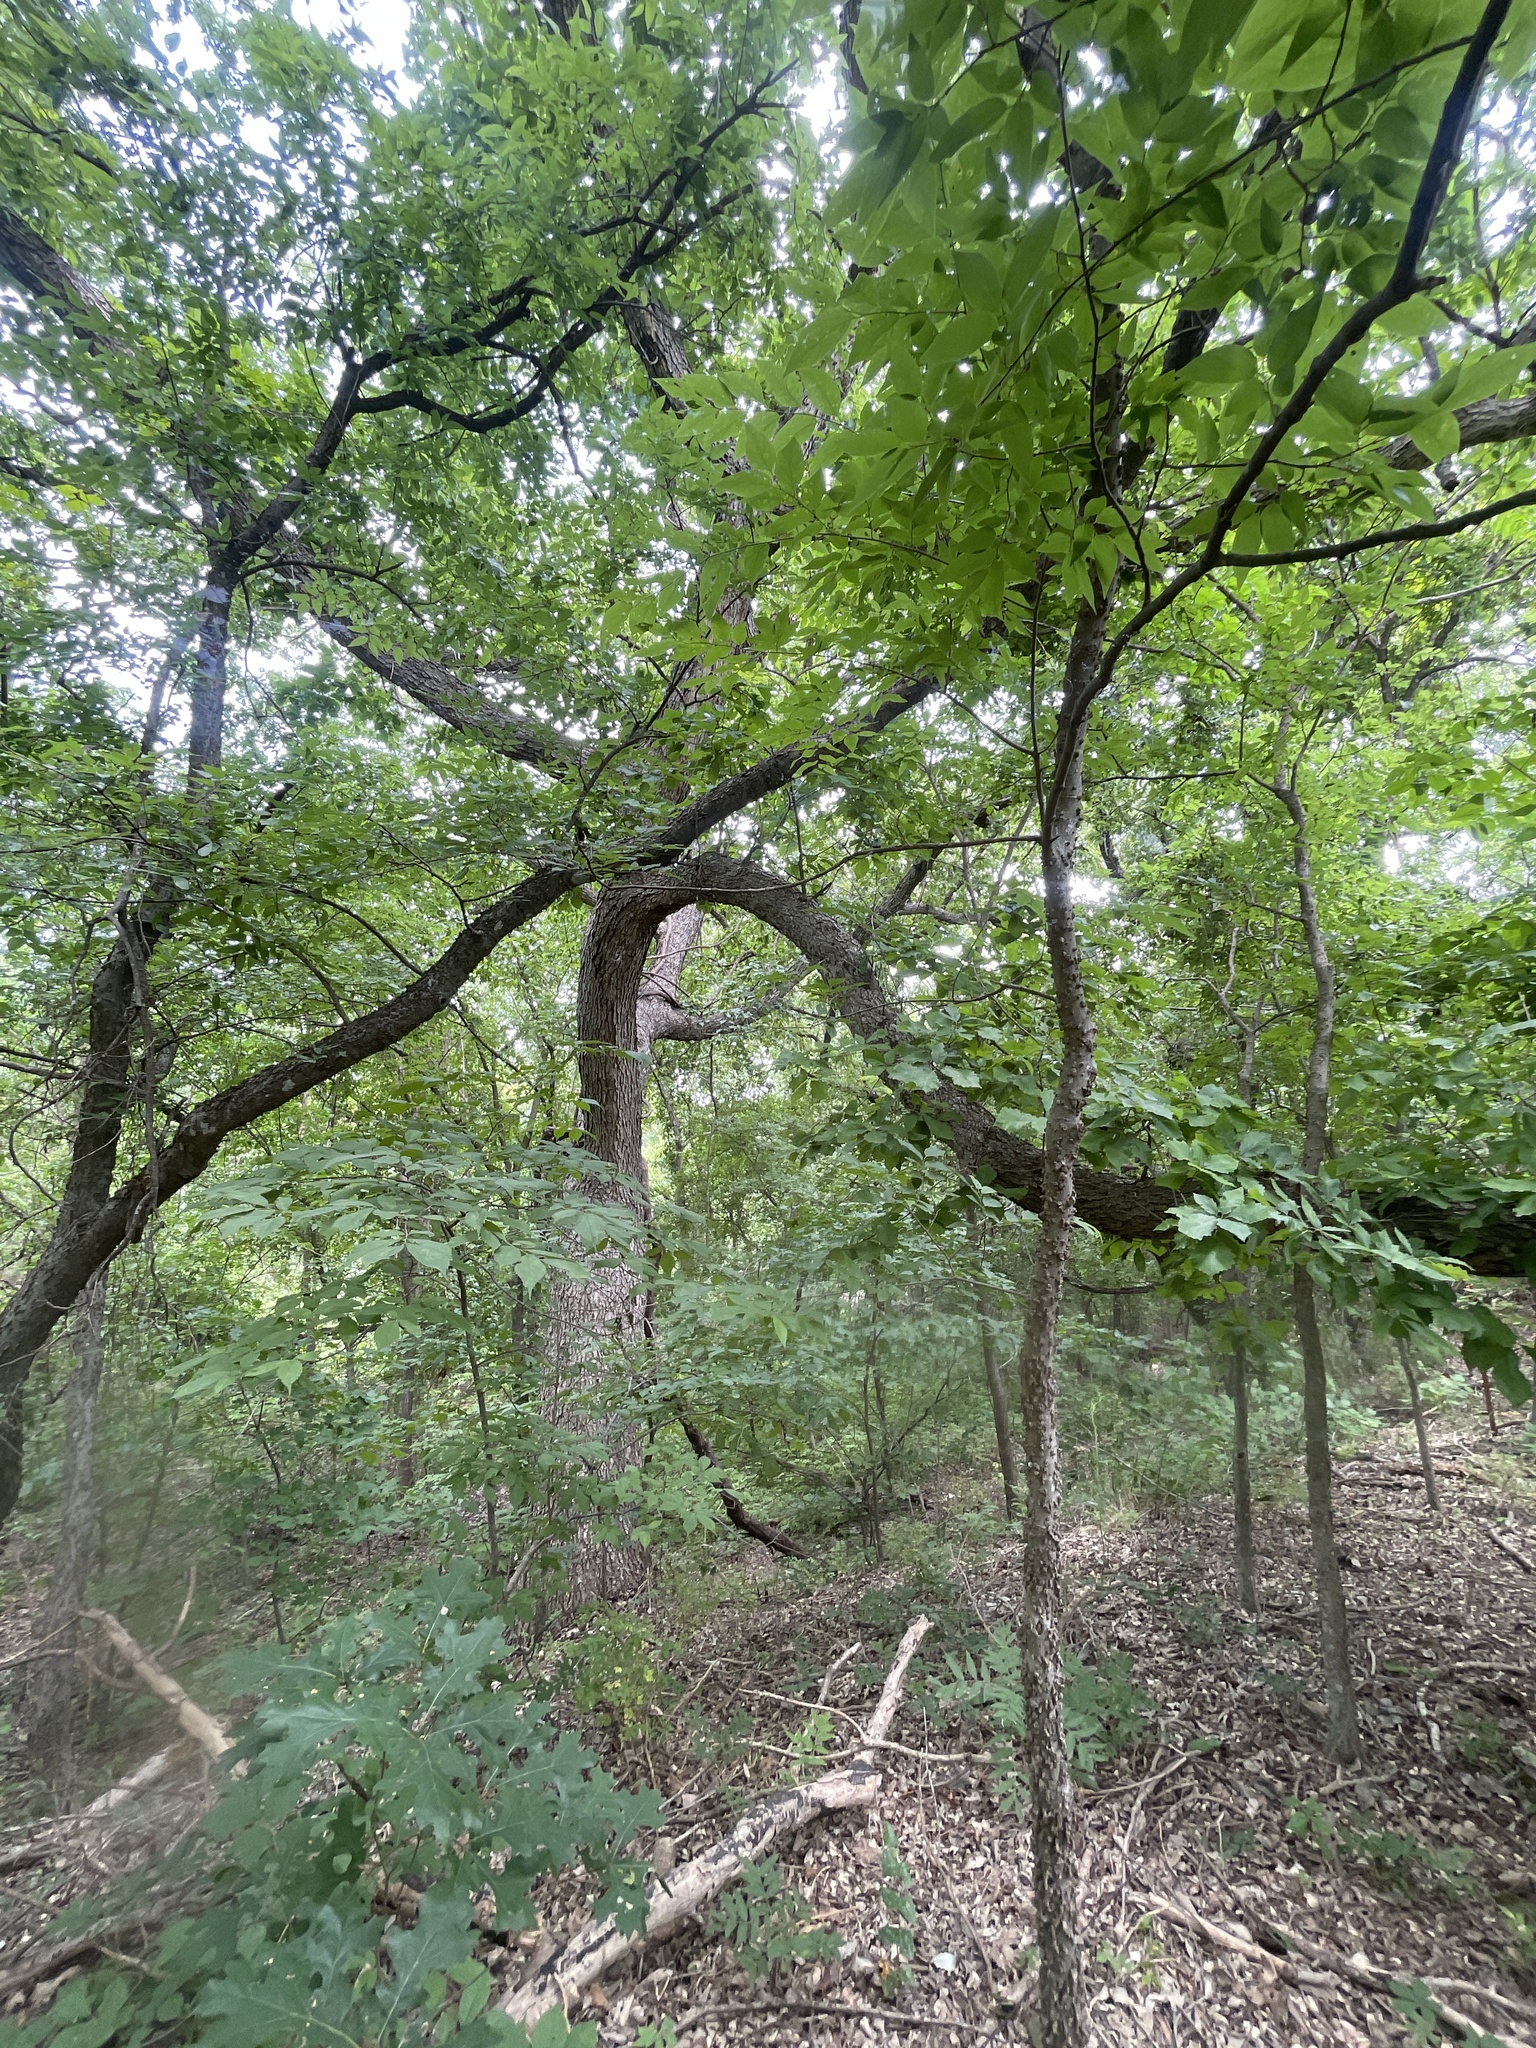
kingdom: Plantae
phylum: Tracheophyta
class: Magnoliopsida
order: Fagales
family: Fagaceae
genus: Quercus
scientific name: Quercus muehlenbergii
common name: Chinkapin oak
